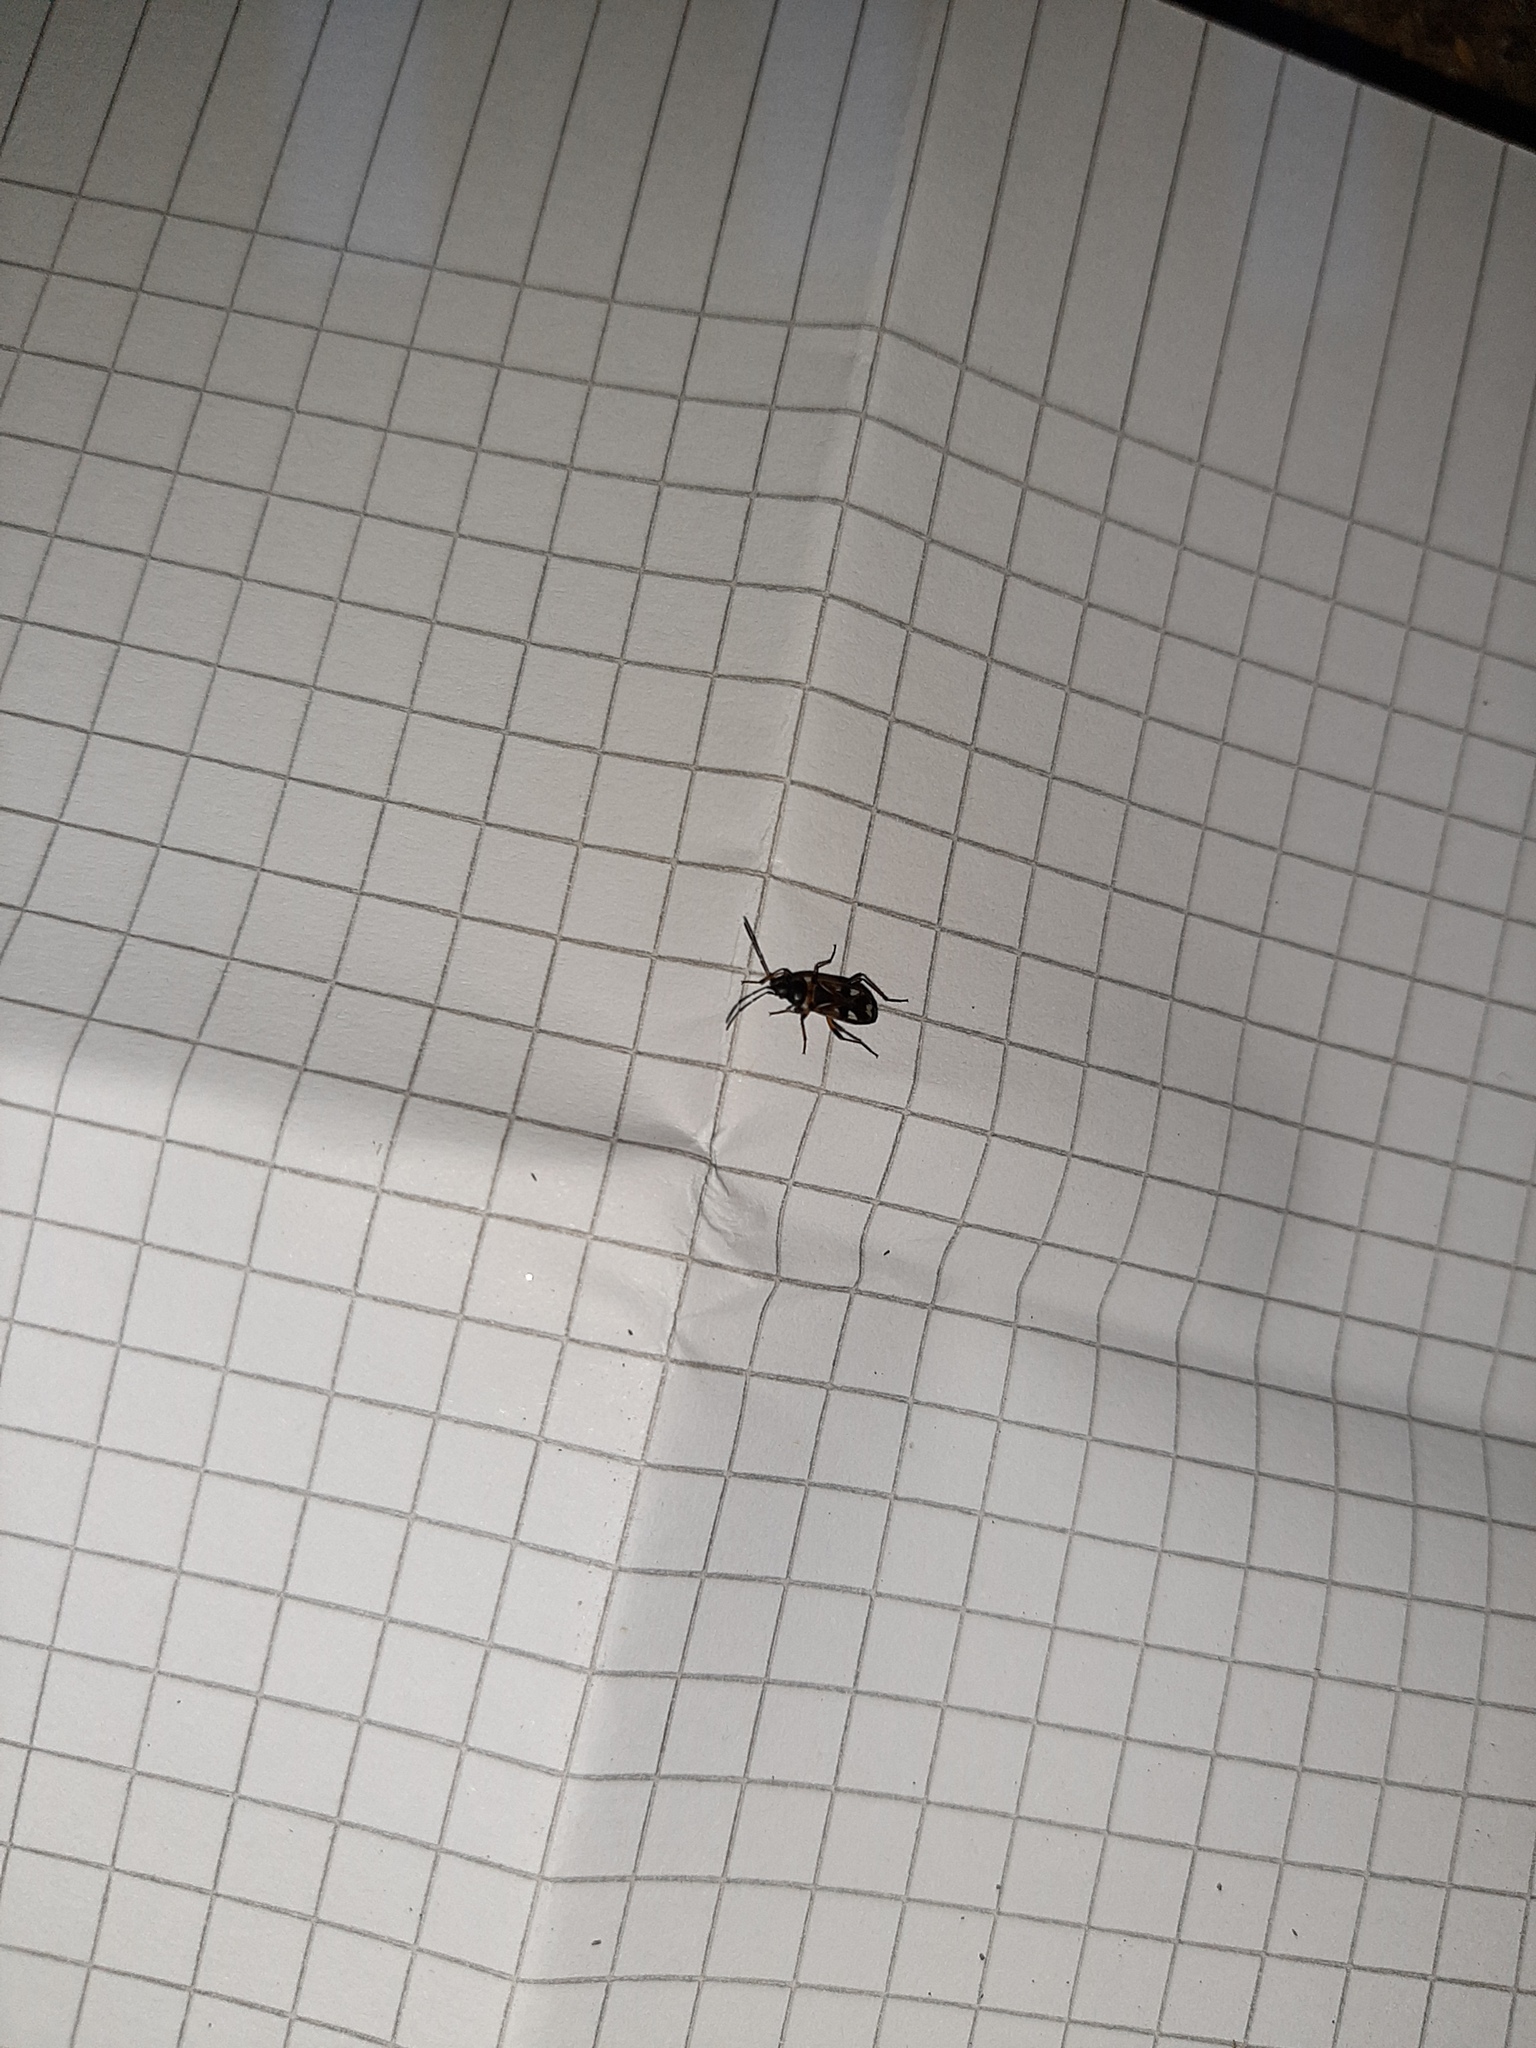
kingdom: Animalia
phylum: Arthropoda
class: Insecta
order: Hemiptera
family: Rhyparochromidae
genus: Raglius
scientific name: Raglius alboacuminatus
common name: Dirt-colored seed bug
